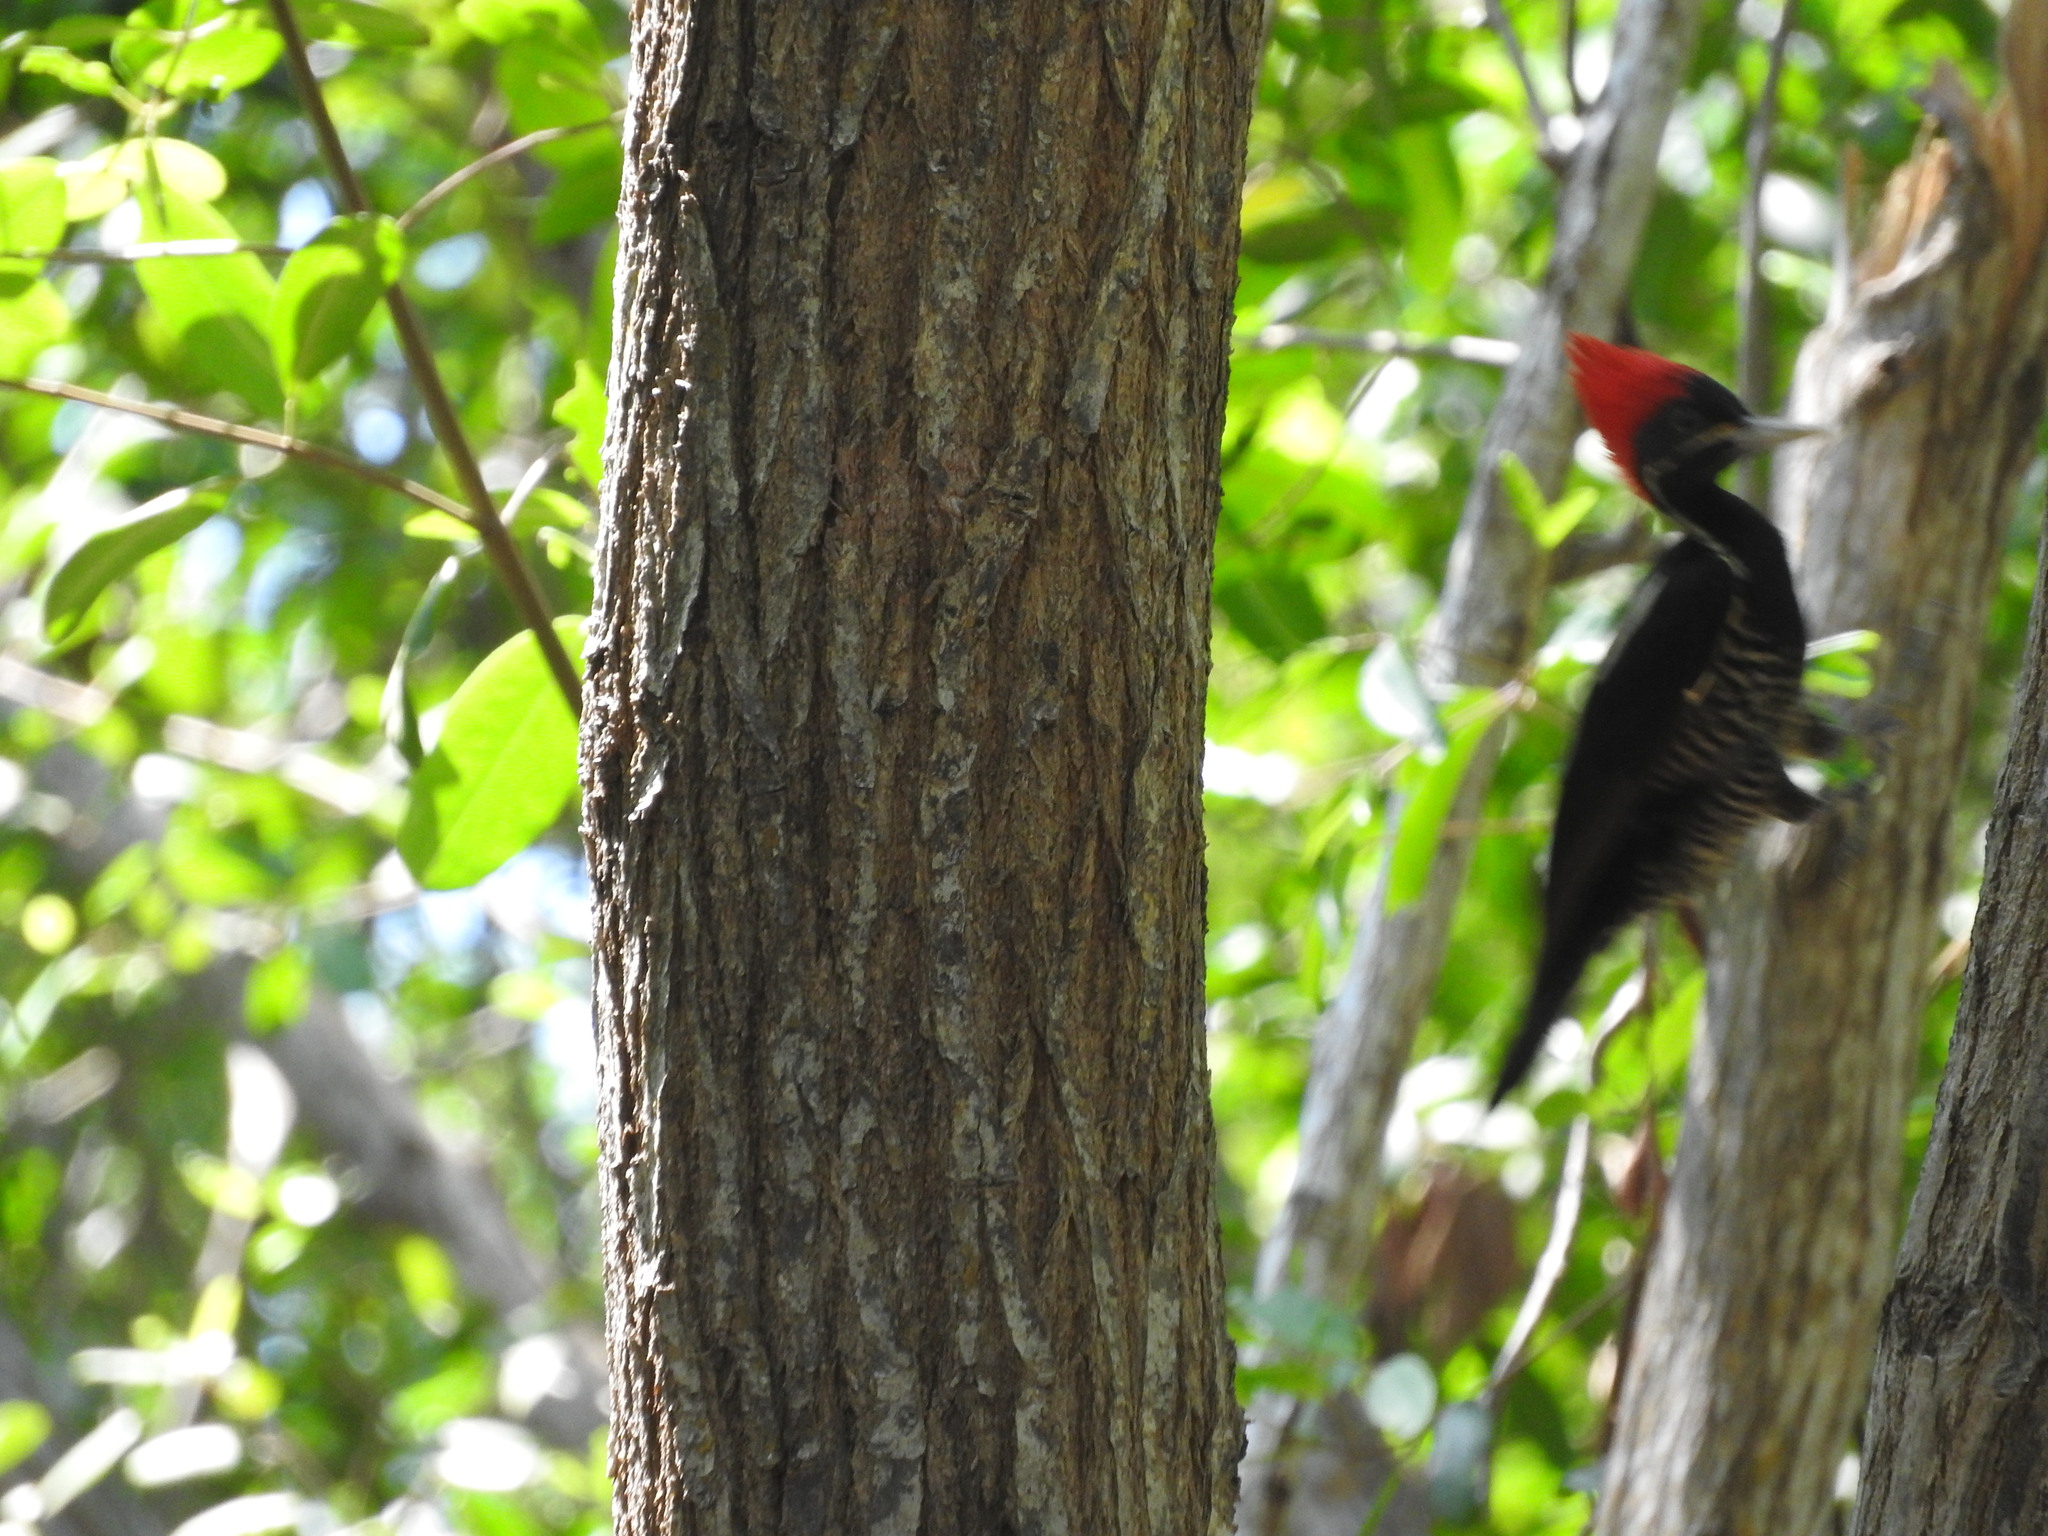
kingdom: Animalia
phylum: Chordata
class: Aves
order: Piciformes
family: Picidae
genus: Dryocopus
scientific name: Dryocopus lineatus
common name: Lineated woodpecker
